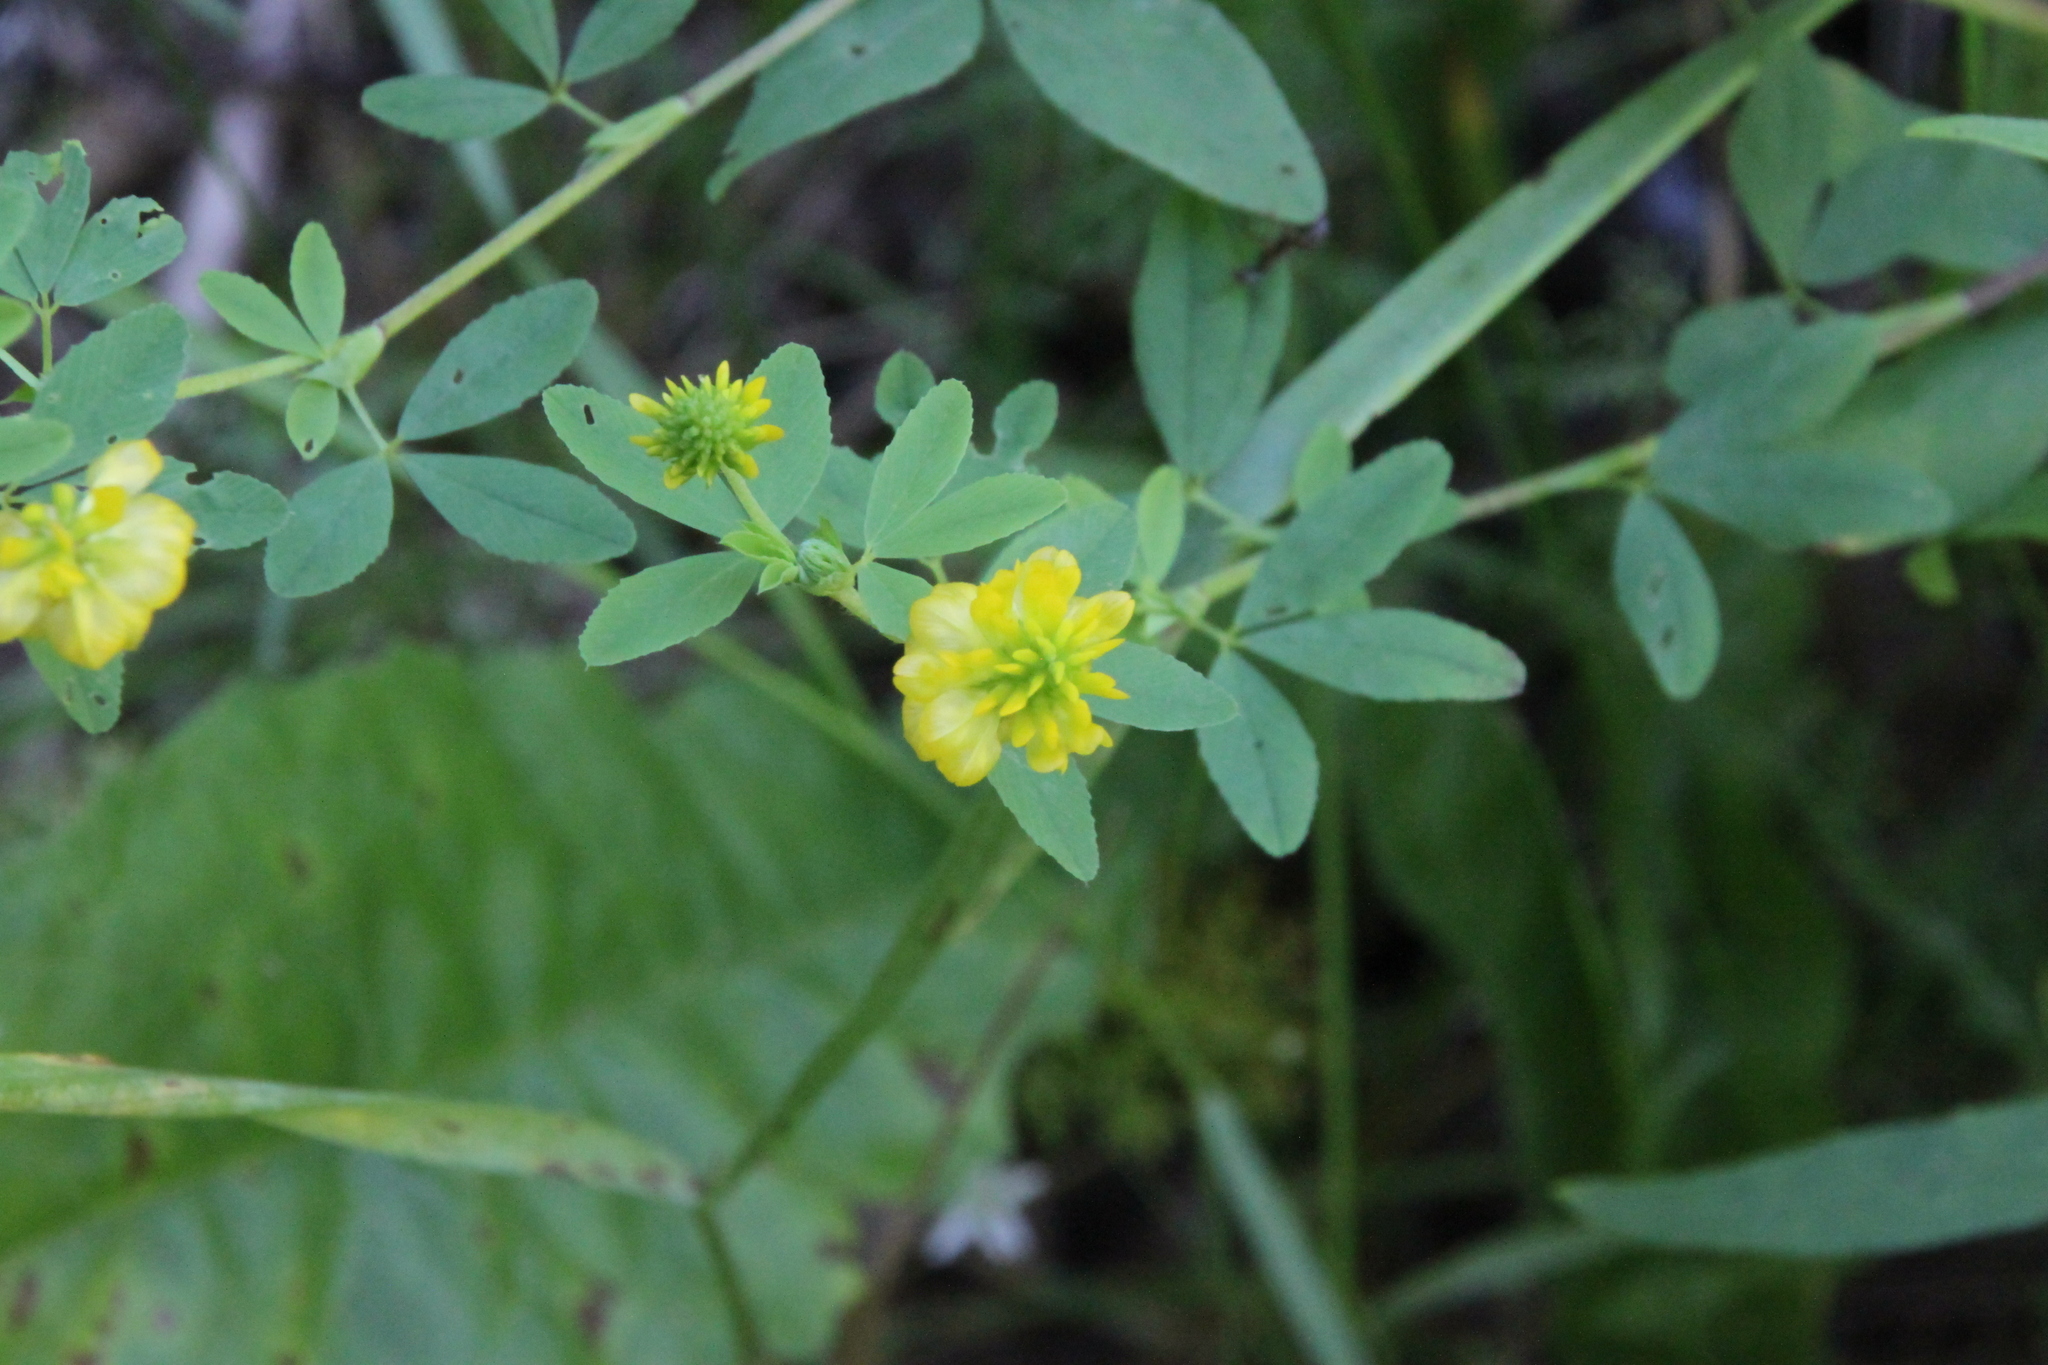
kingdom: Plantae
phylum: Tracheophyta
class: Magnoliopsida
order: Fabales
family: Fabaceae
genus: Trifolium
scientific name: Trifolium aureum
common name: Golden clover
